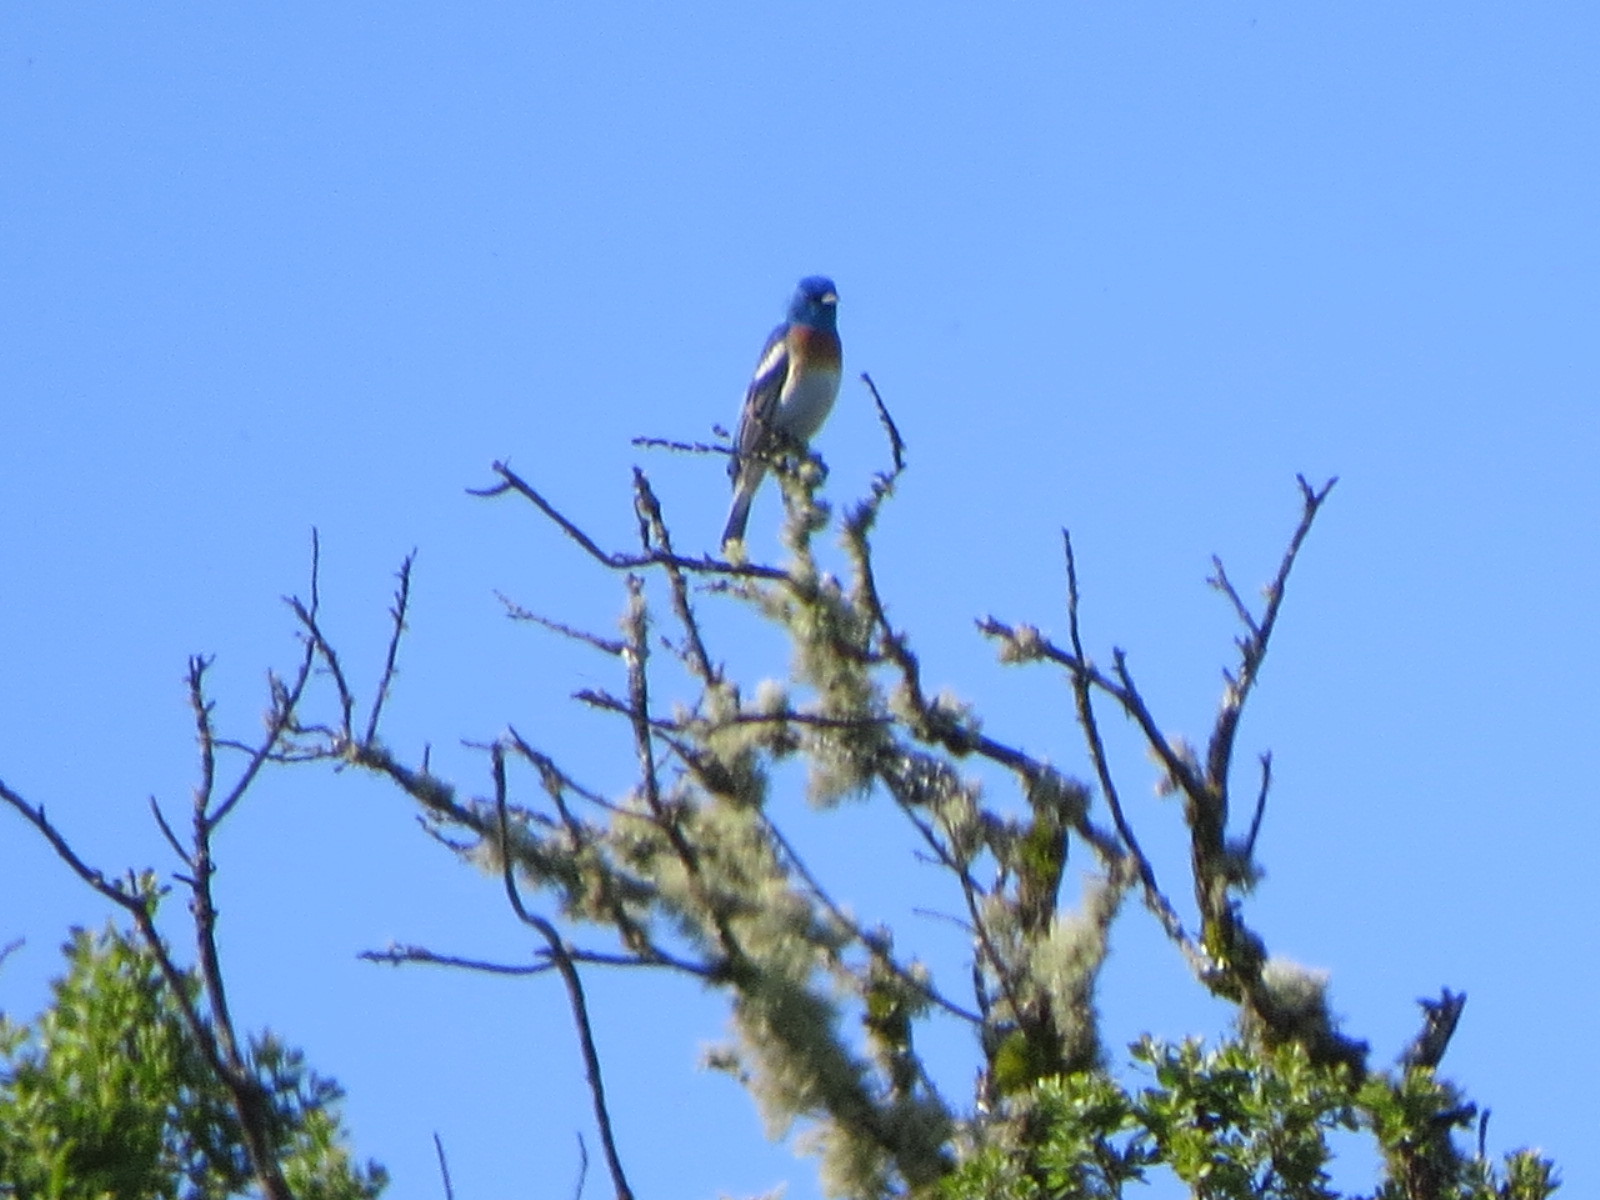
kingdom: Animalia
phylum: Chordata
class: Aves
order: Passeriformes
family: Cardinalidae
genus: Passerina
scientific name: Passerina amoena
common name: Lazuli bunting
